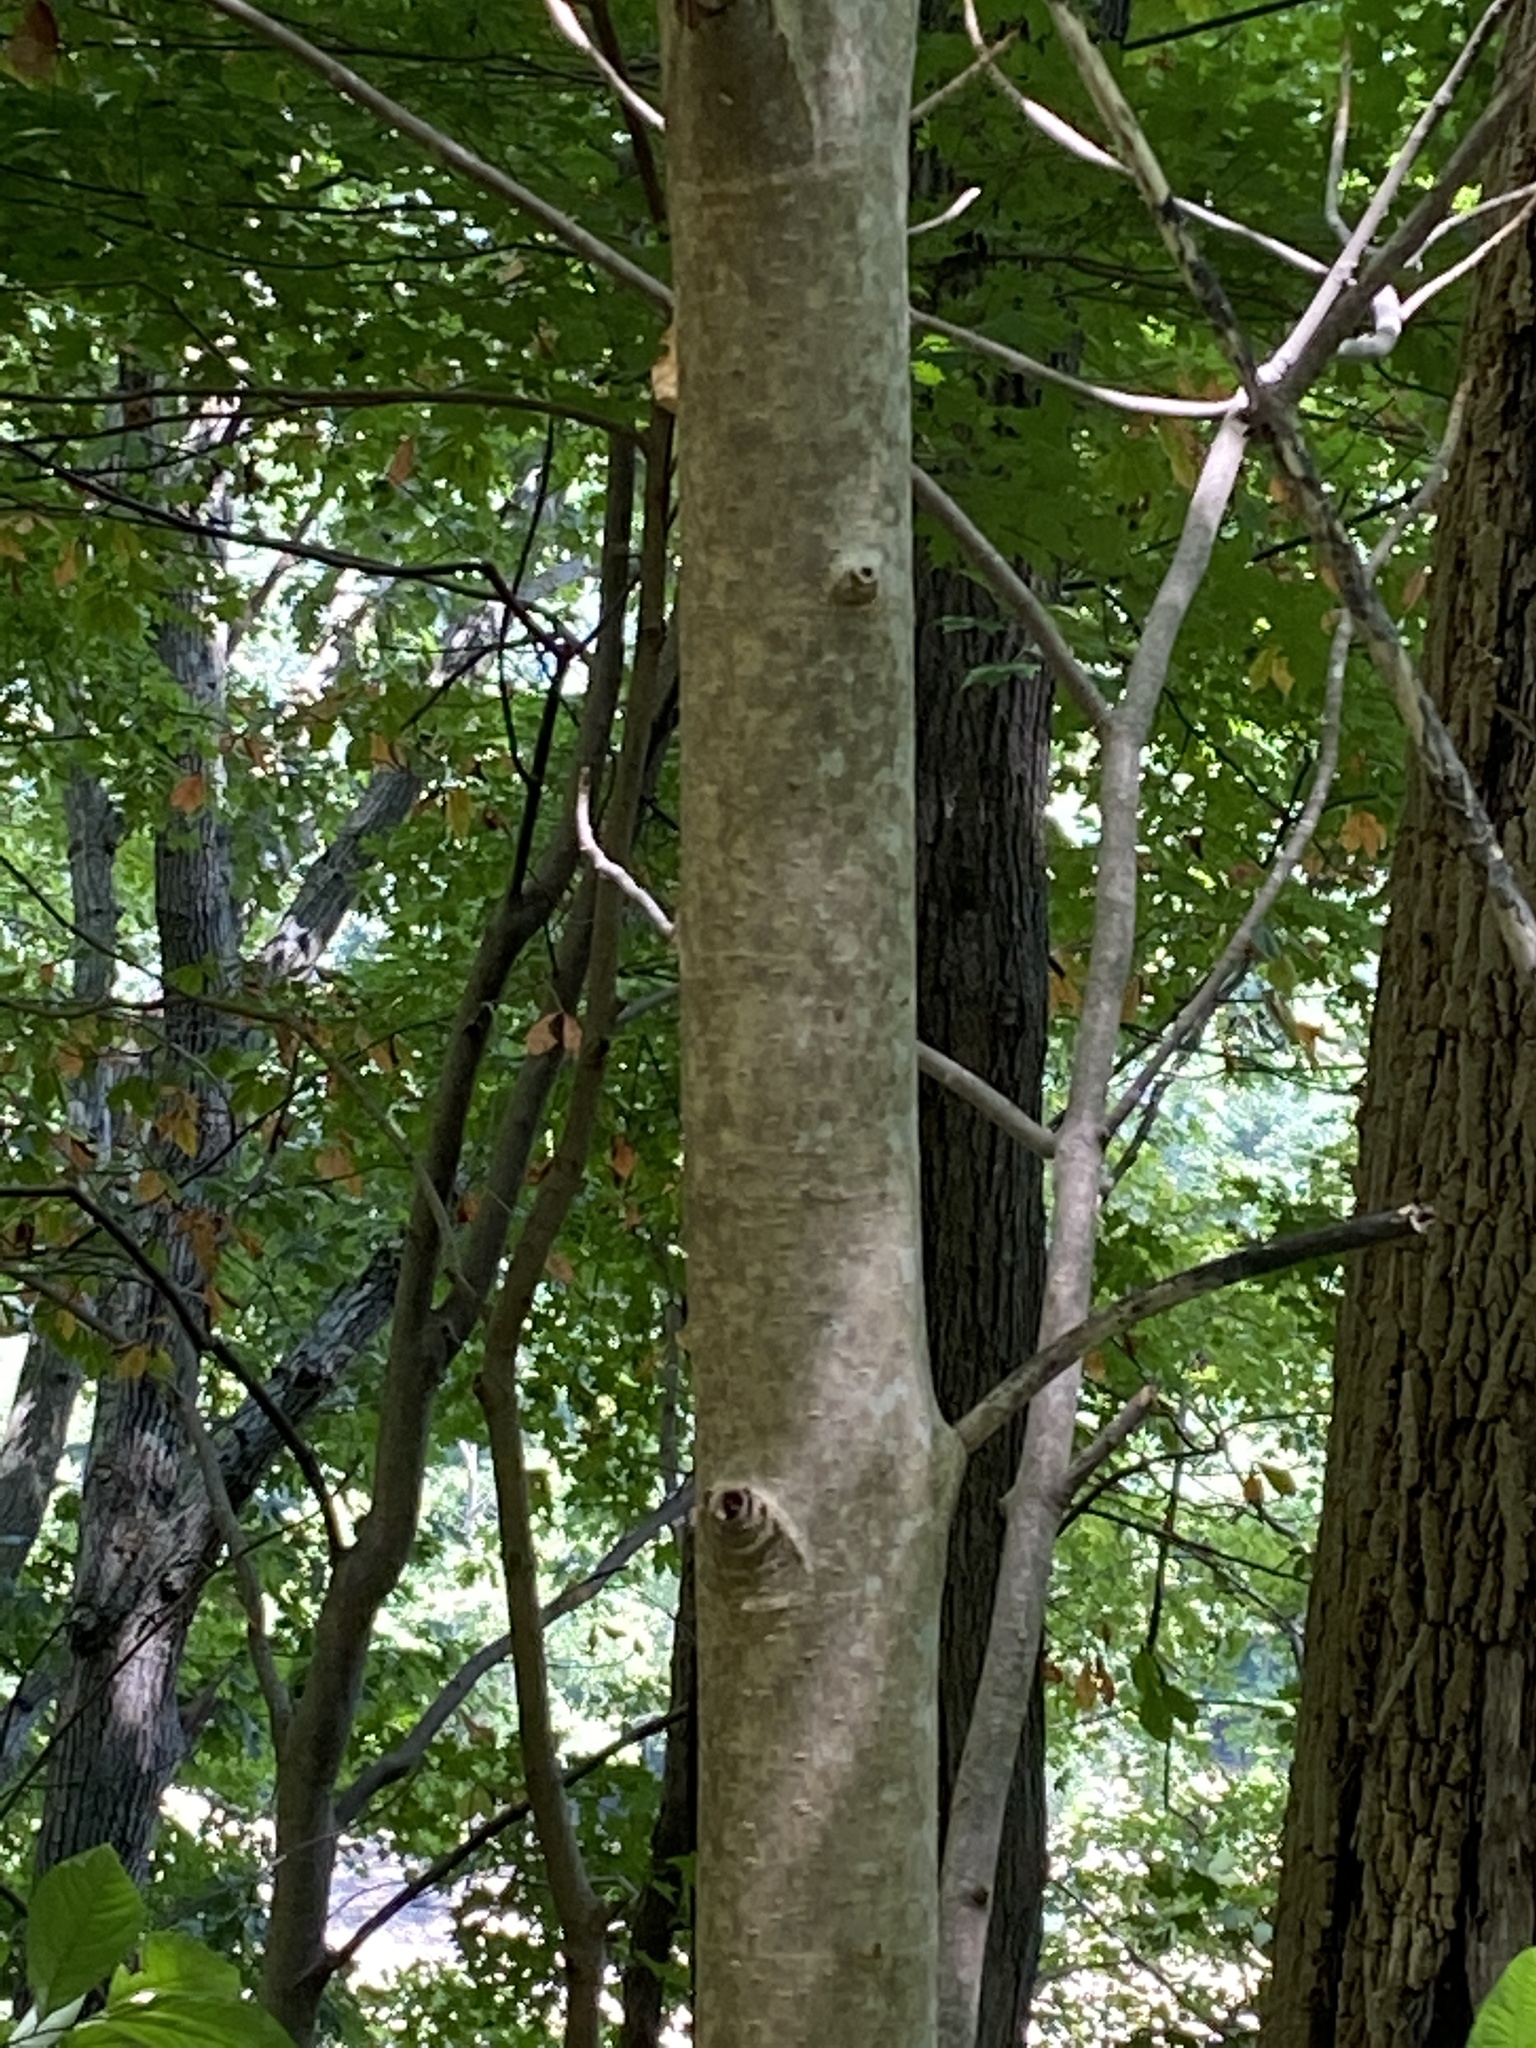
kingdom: Plantae
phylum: Tracheophyta
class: Magnoliopsida
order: Sapindales
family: Sapindaceae
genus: Aesculus
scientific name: Aesculus flava
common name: Yellow buckeye
